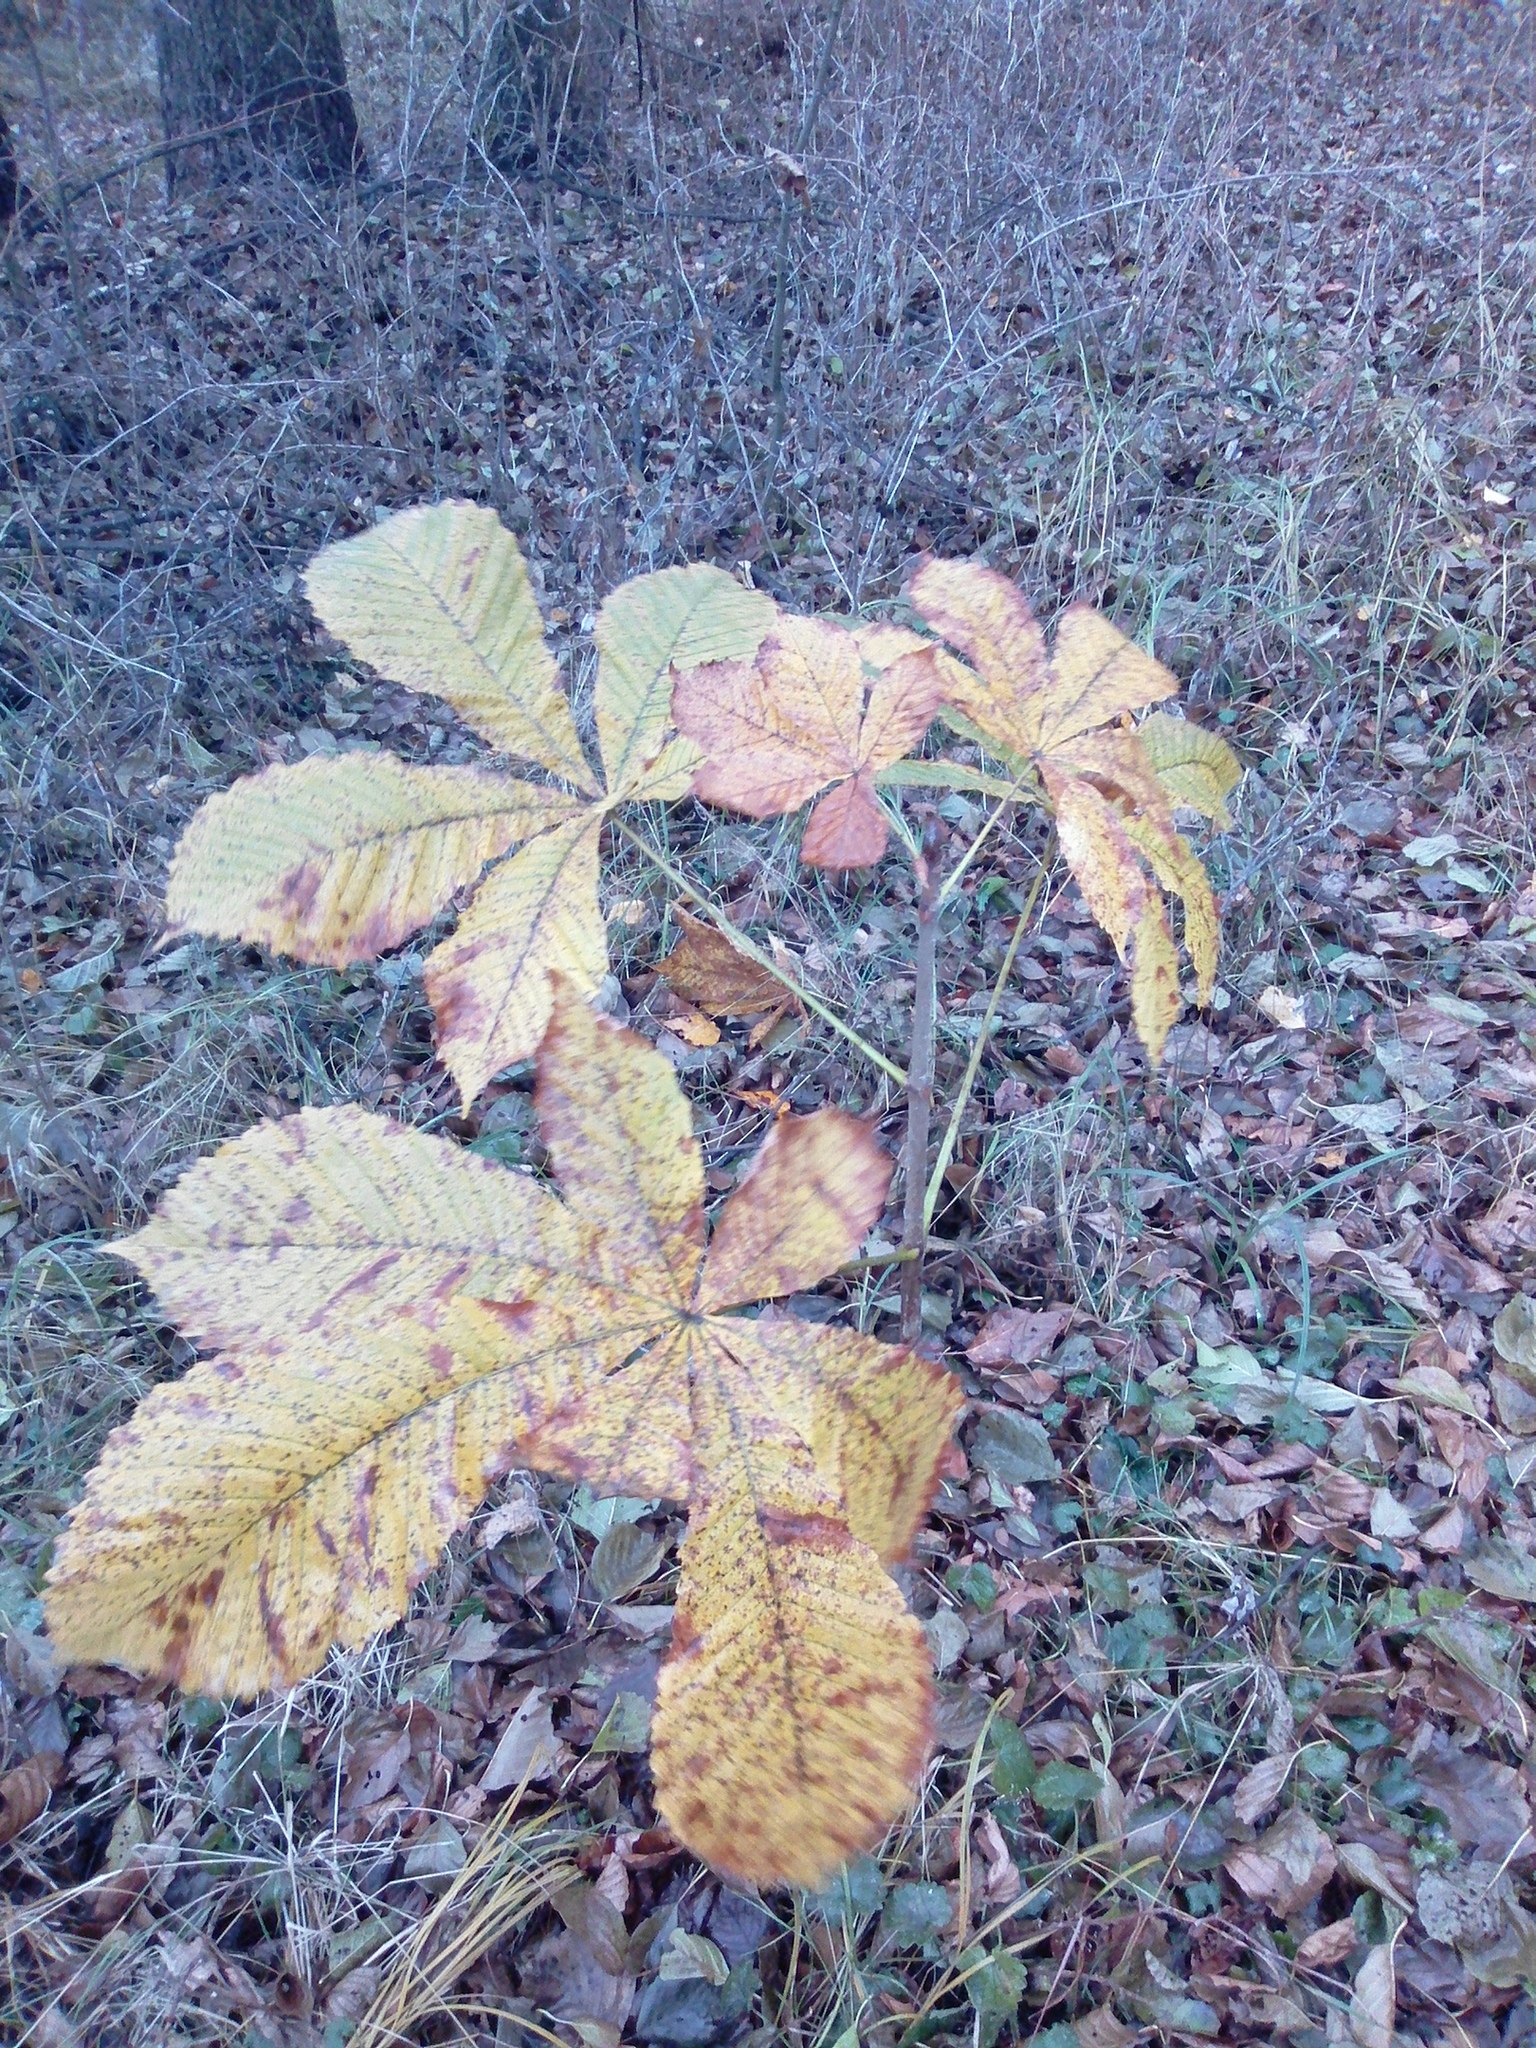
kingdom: Plantae
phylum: Tracheophyta
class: Magnoliopsida
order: Sapindales
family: Sapindaceae
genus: Aesculus
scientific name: Aesculus hippocastanum
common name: Horse-chestnut
